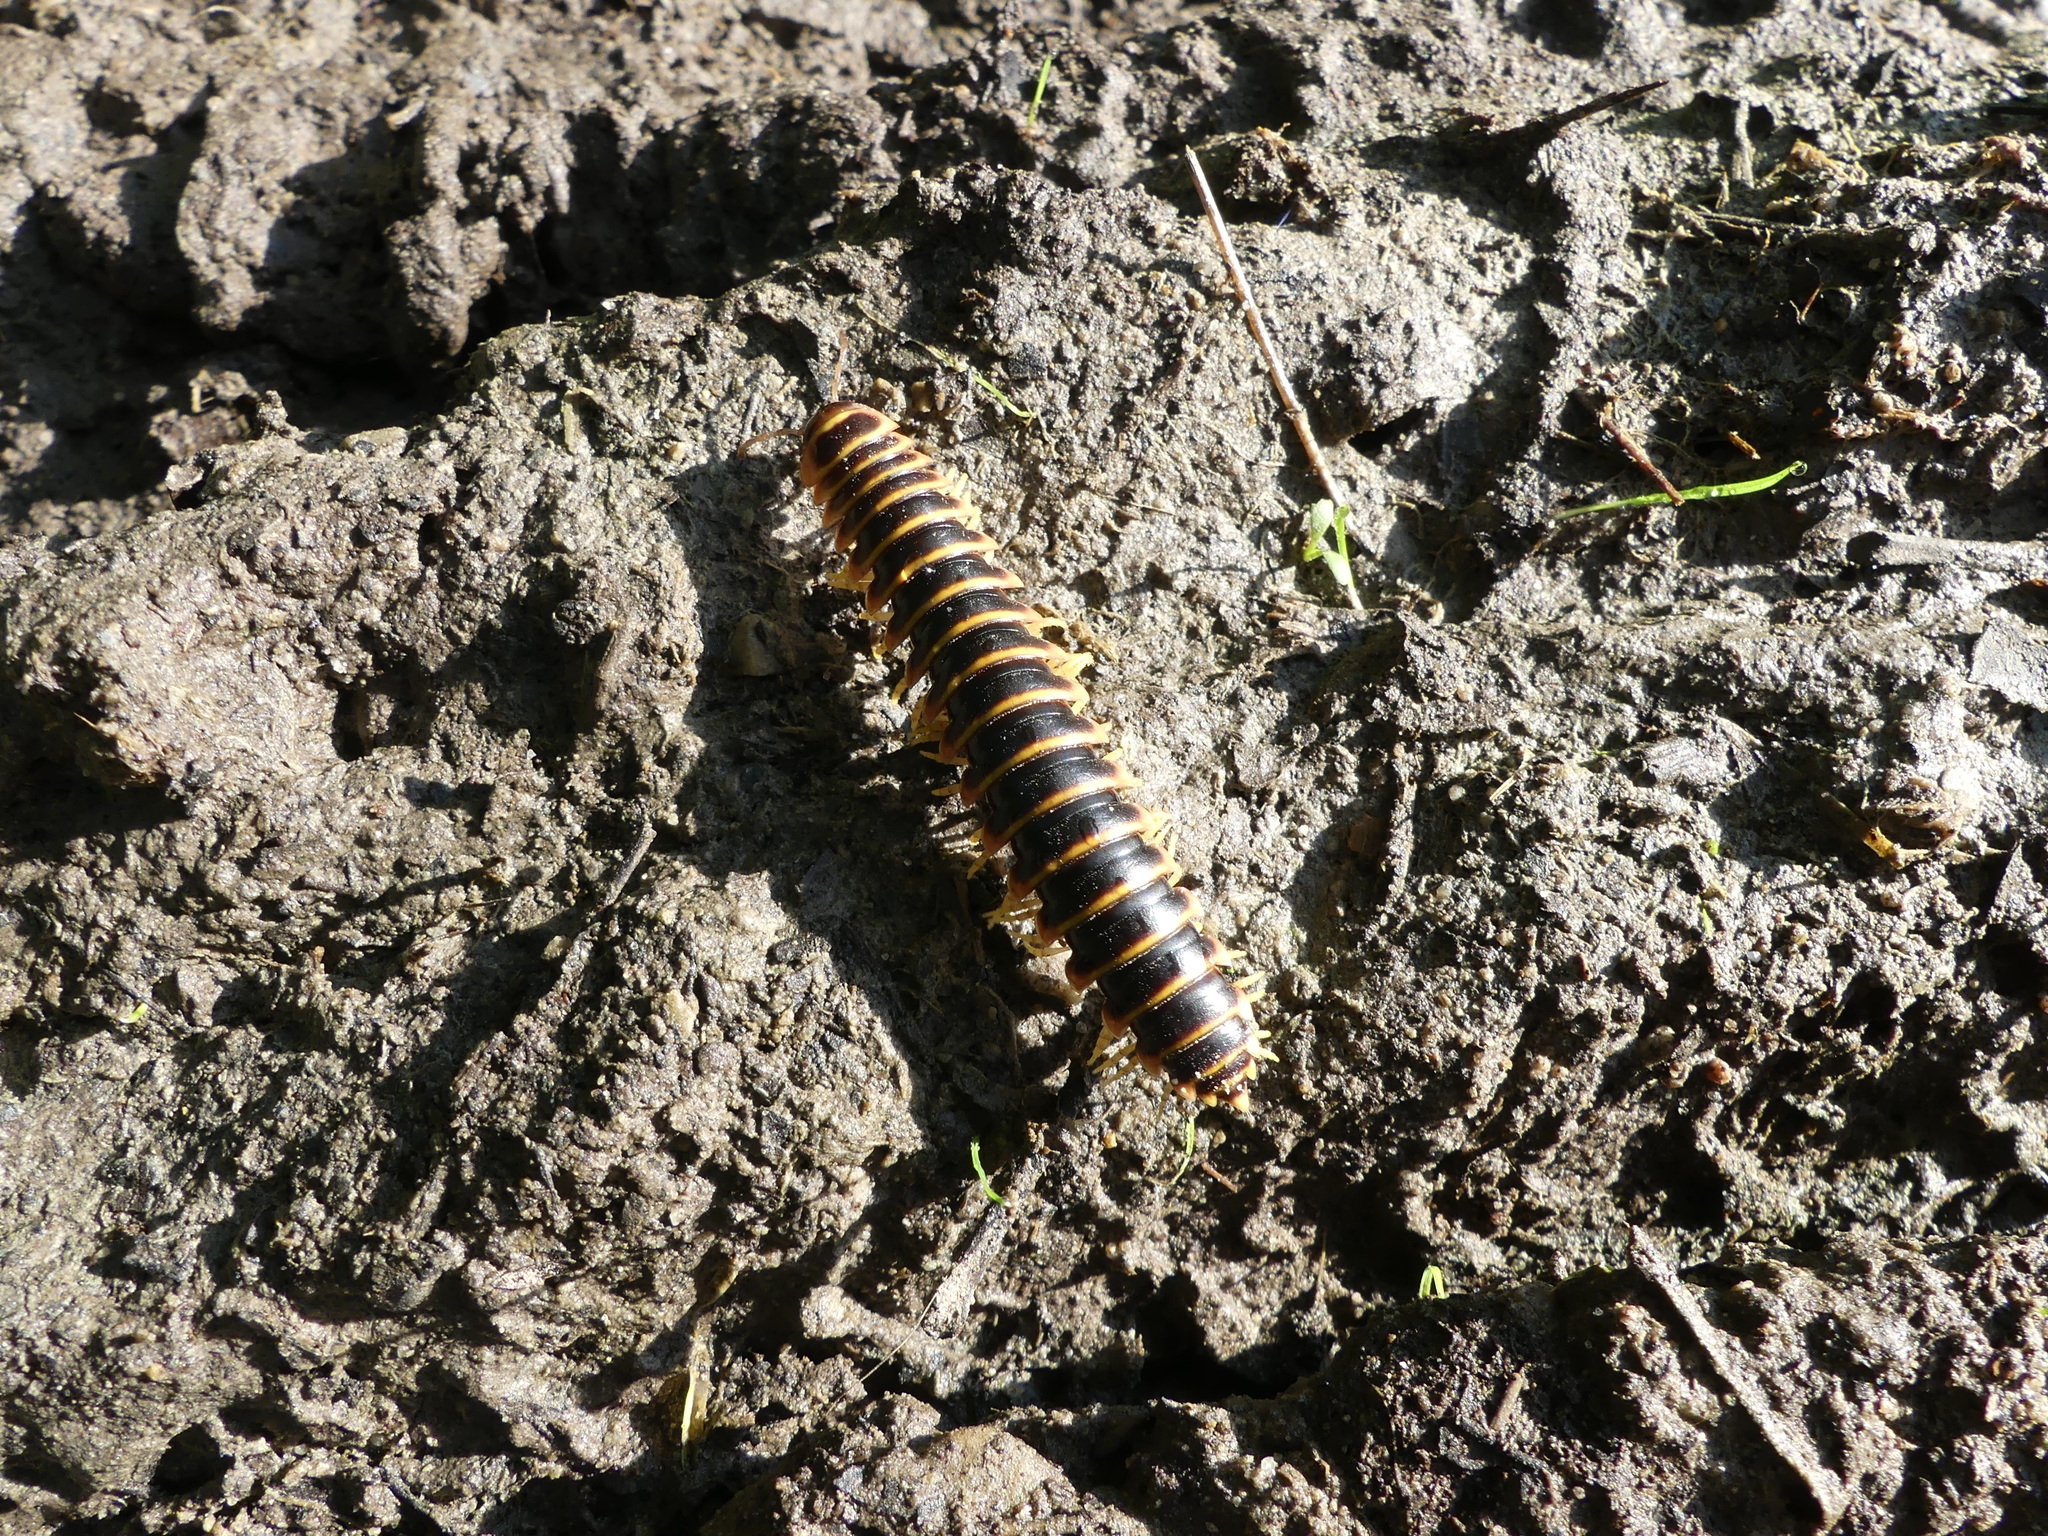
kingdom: Animalia
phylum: Arthropoda
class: Diplopoda
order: Polydesmida
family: Xystodesmidae
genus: Apheloria
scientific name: Apheloria virginiensis
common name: Black-and-gold flat millipede
